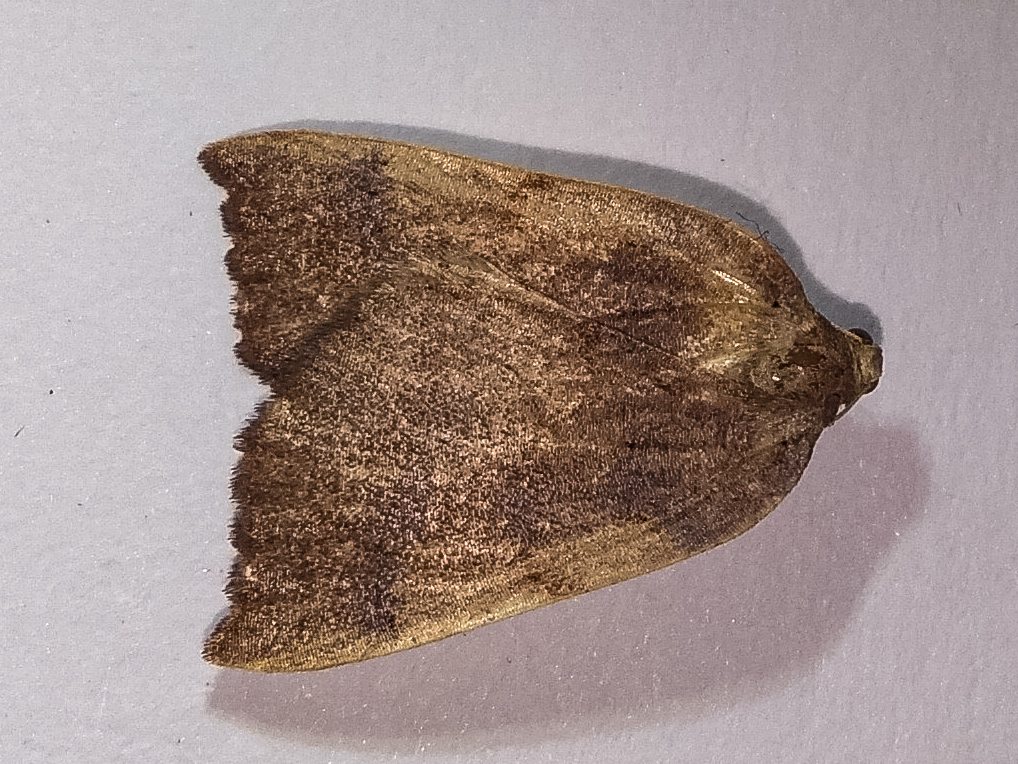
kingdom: Animalia
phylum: Arthropoda
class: Insecta
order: Lepidoptera
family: Geometridae
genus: Sestra
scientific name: Sestra humeraria
